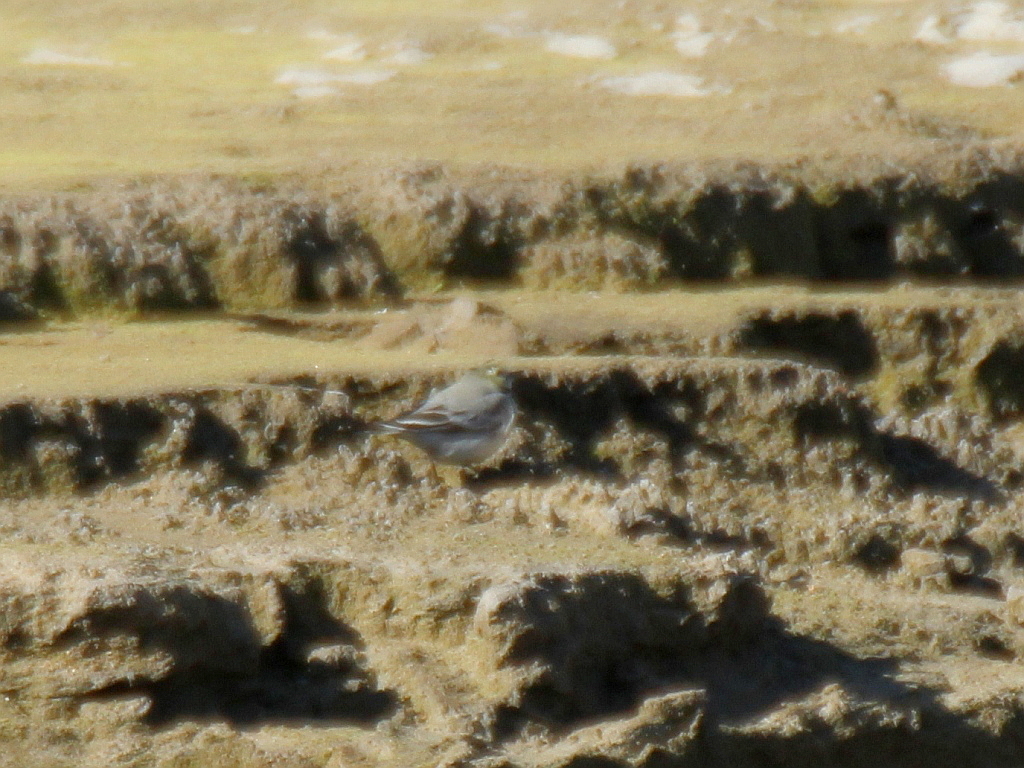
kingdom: Animalia
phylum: Chordata
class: Aves
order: Passeriformes
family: Motacillidae
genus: Motacilla
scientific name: Motacilla alba
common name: White wagtail
